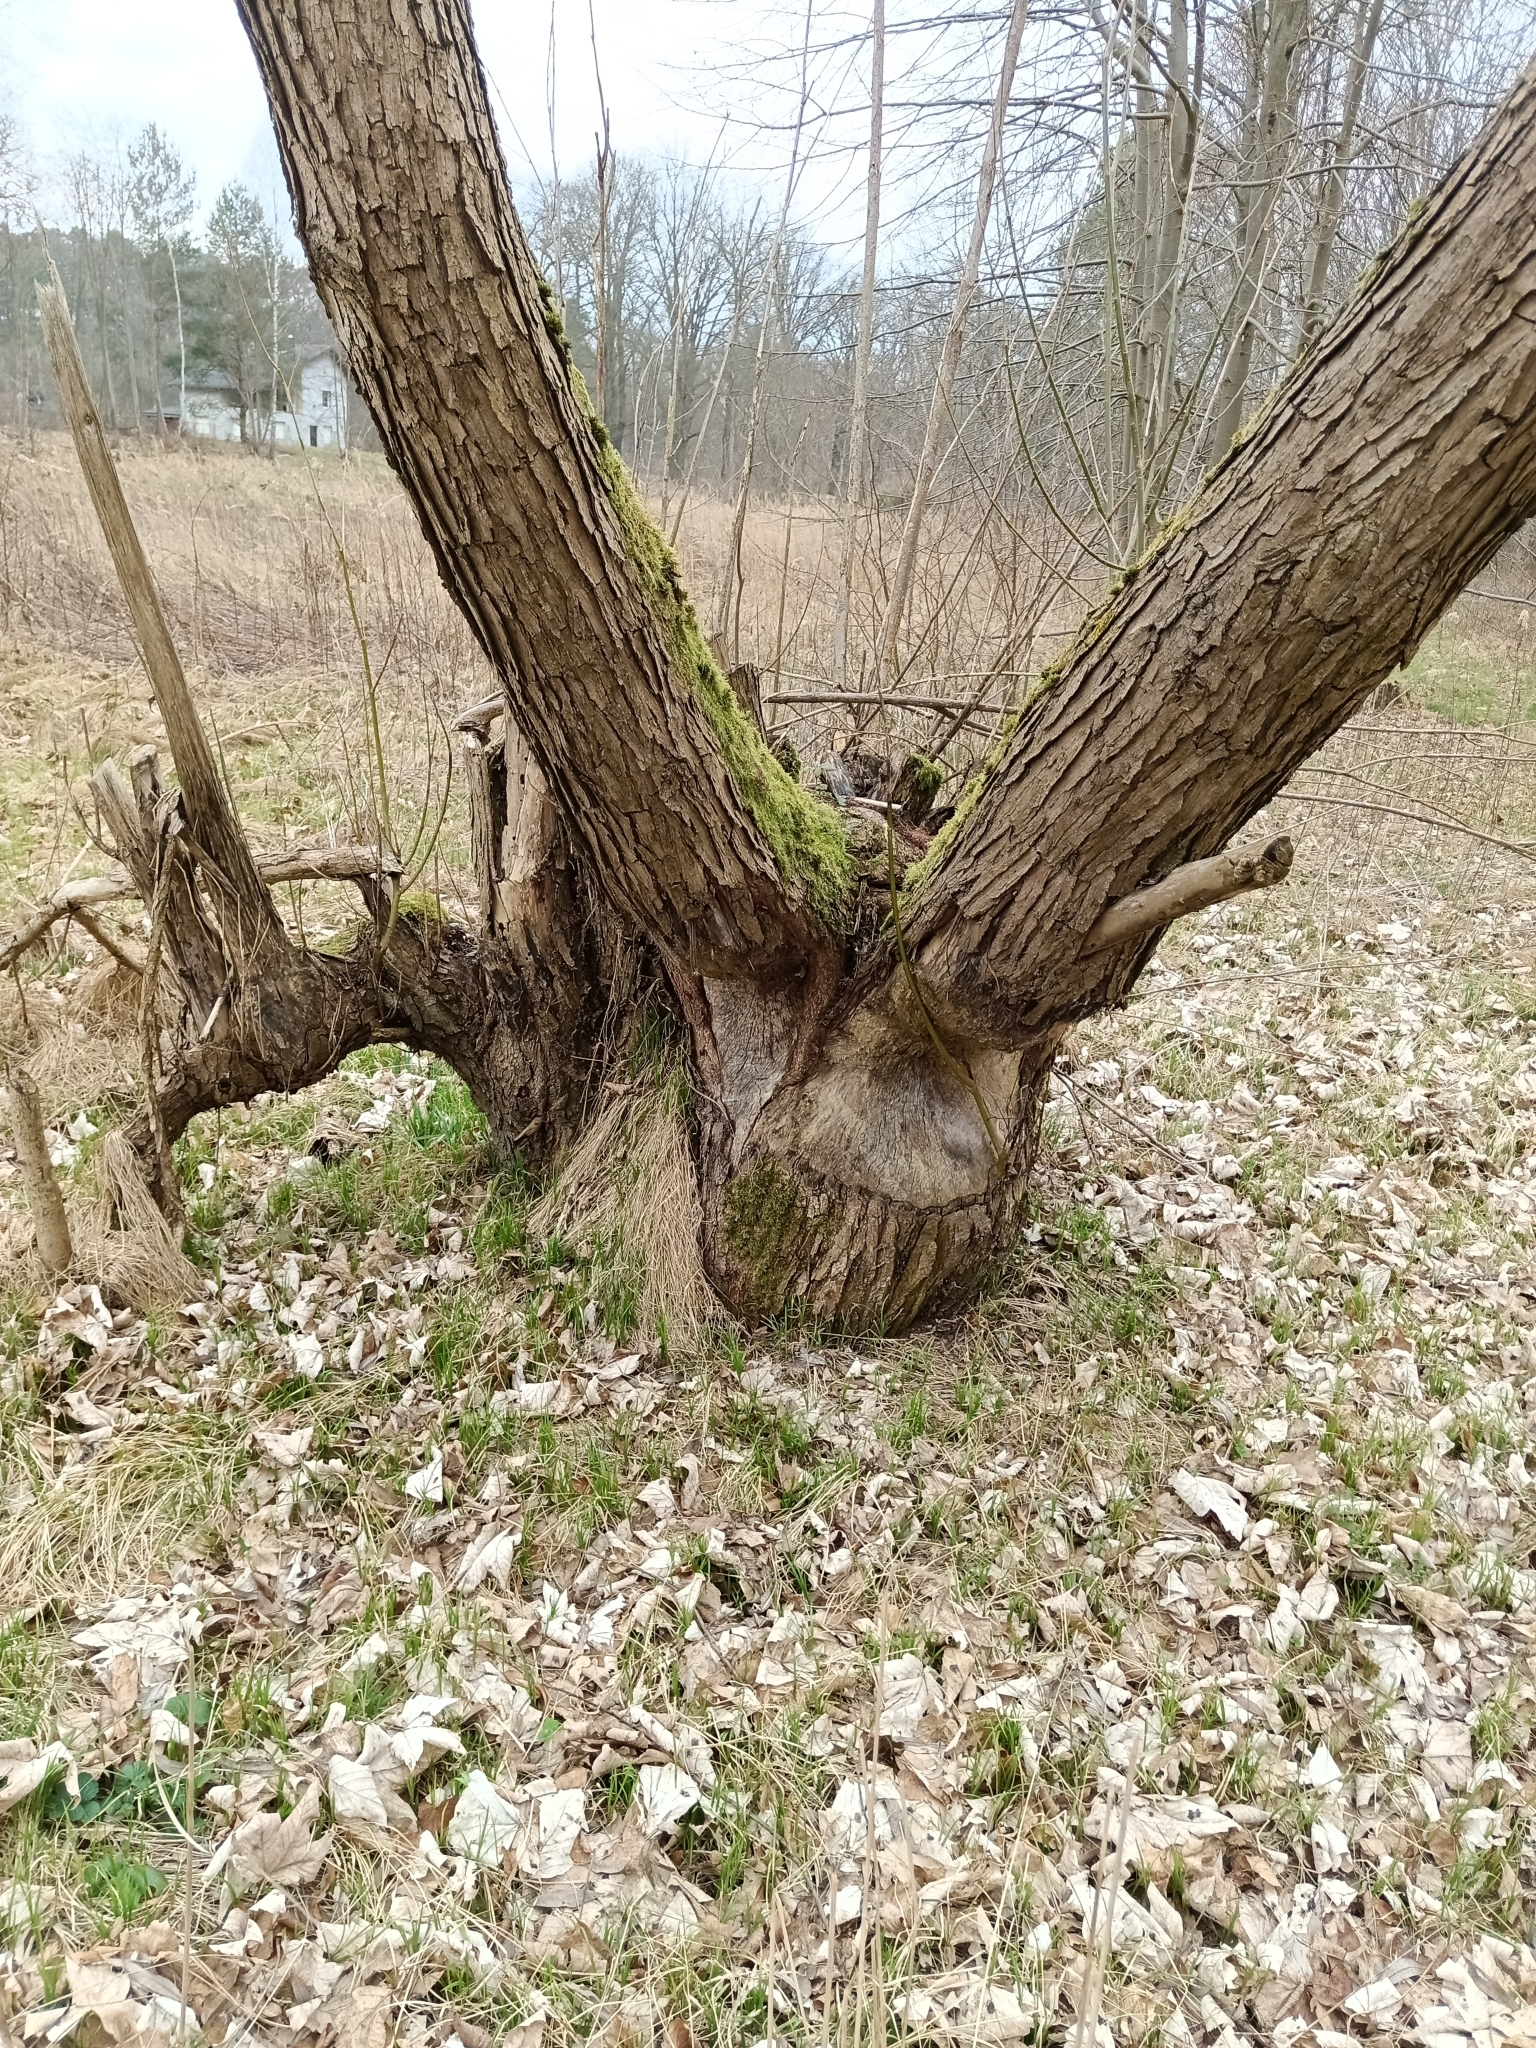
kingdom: Animalia
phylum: Chordata
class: Mammalia
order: Rodentia
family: Castoridae
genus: Castor
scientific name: Castor fiber
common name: Eurasian beaver
